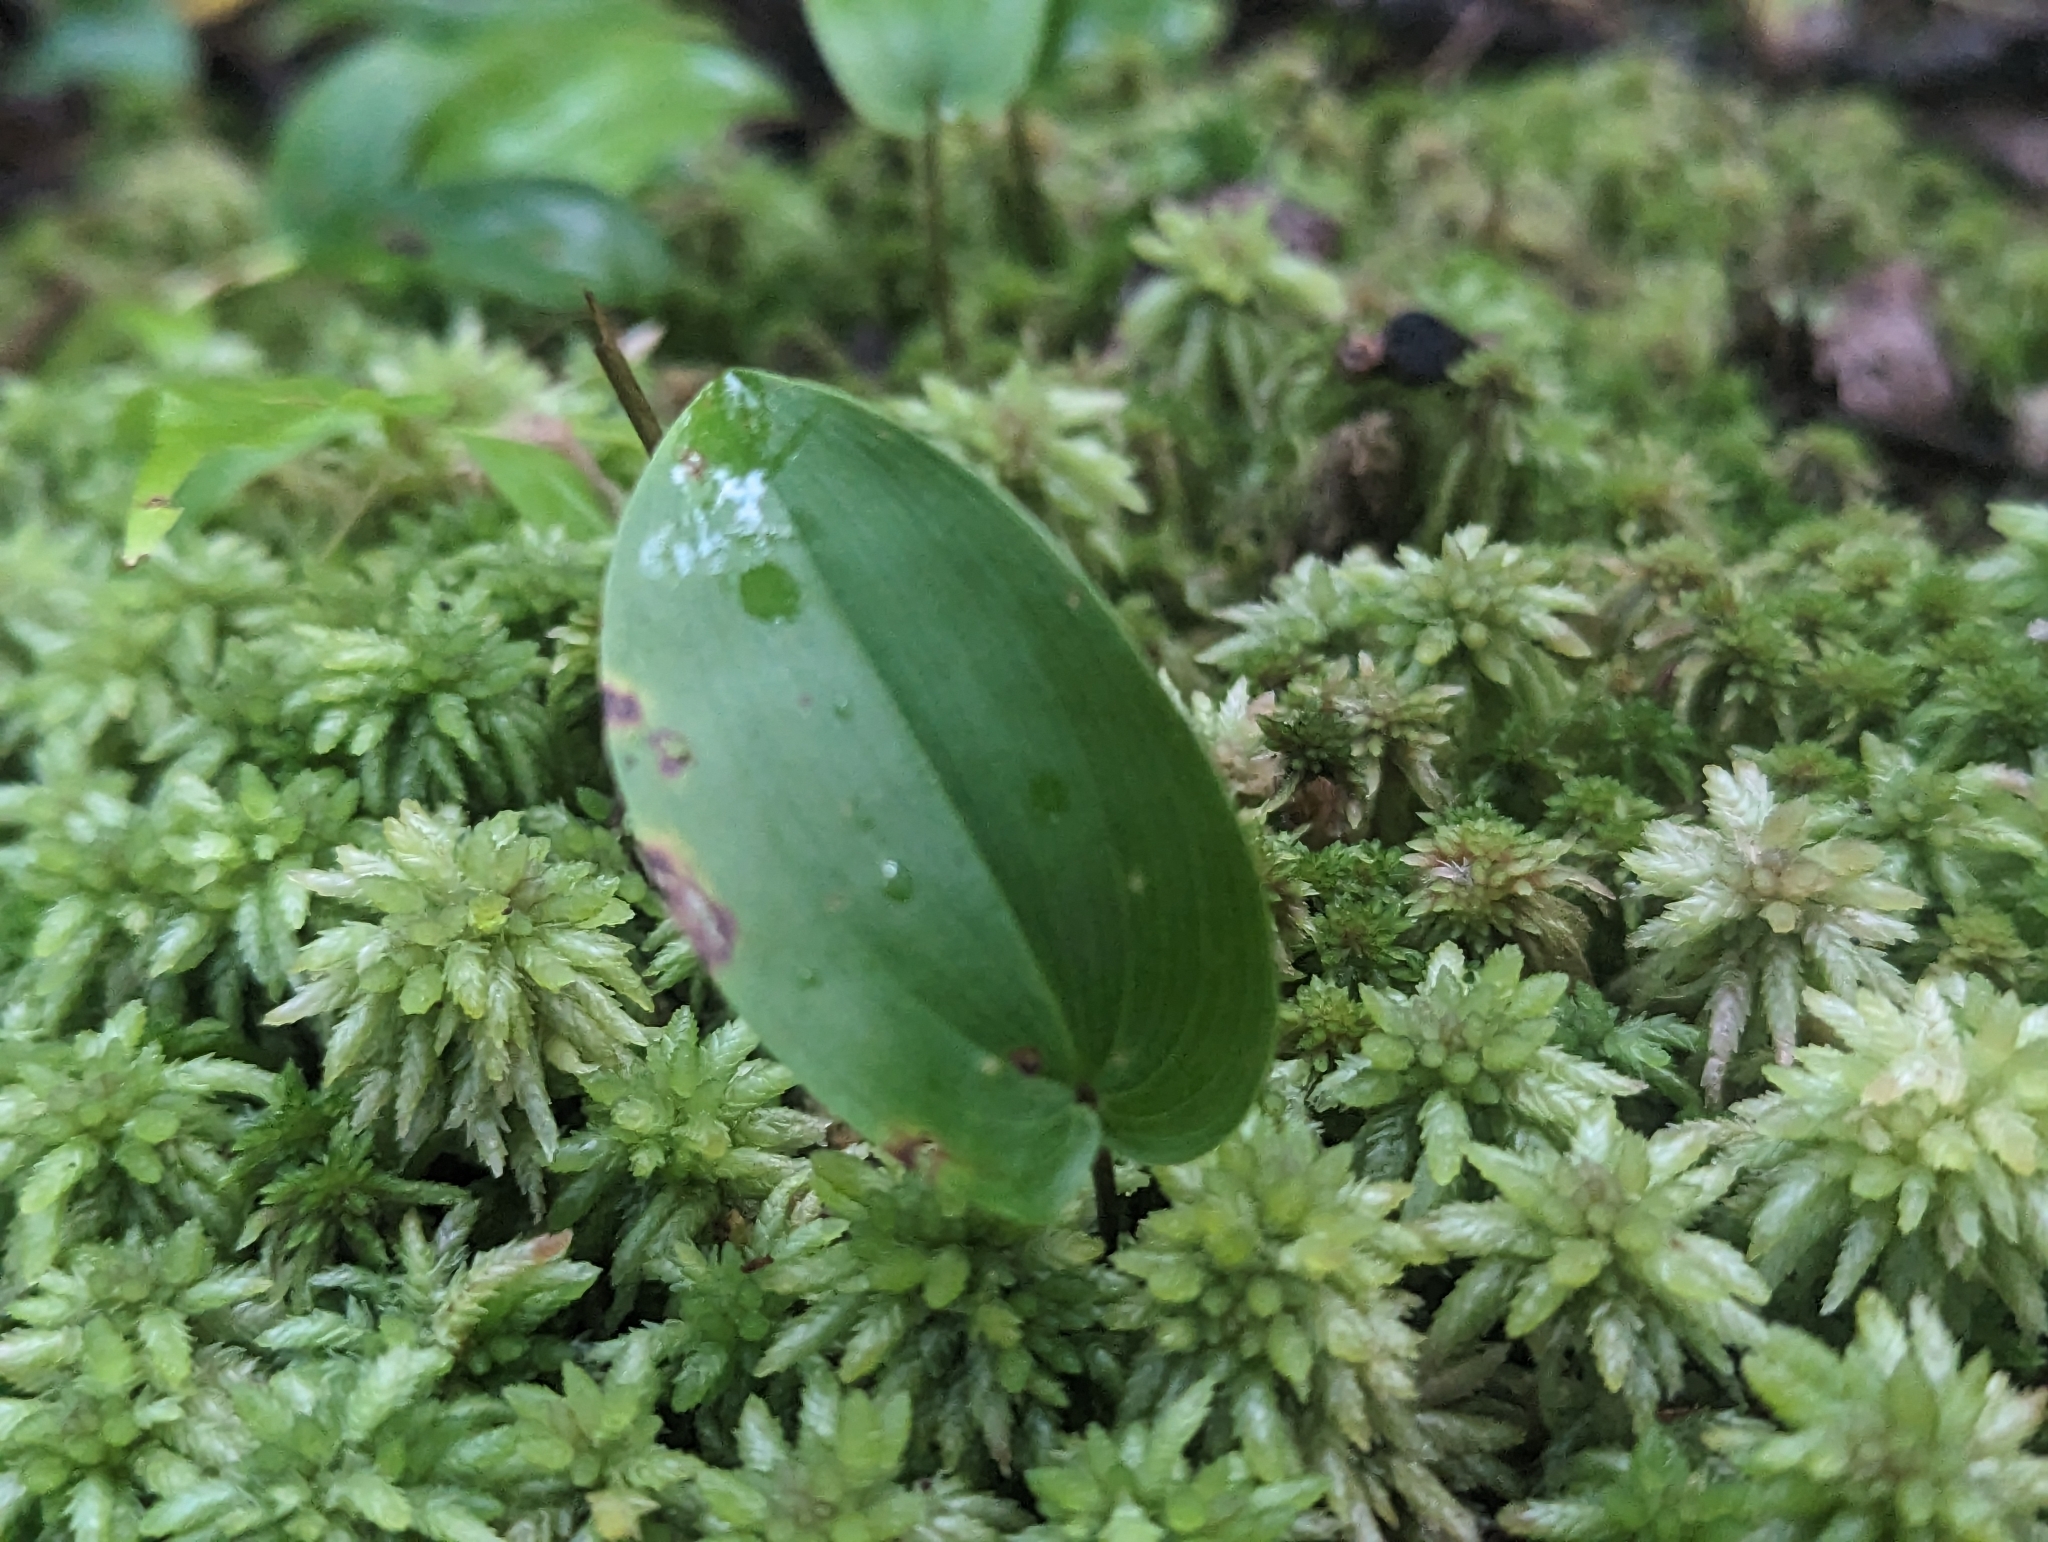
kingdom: Plantae
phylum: Tracheophyta
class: Liliopsida
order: Asparagales
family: Asparagaceae
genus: Maianthemum
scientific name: Maianthemum canadense
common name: False lily-of-the-valley
